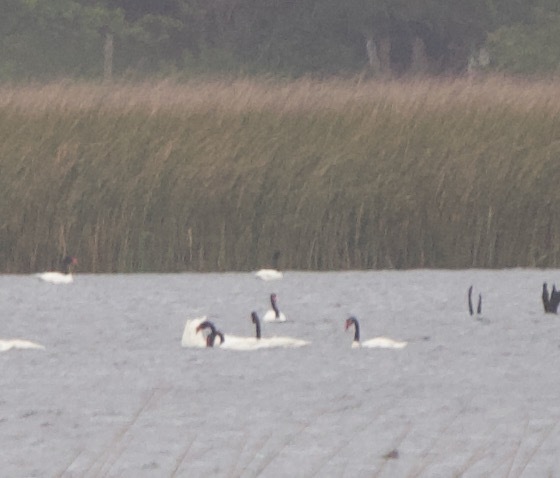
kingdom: Animalia
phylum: Chordata
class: Aves
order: Anseriformes
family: Anatidae
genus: Cygnus
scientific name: Cygnus melancoryphus
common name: Black-necked swan
